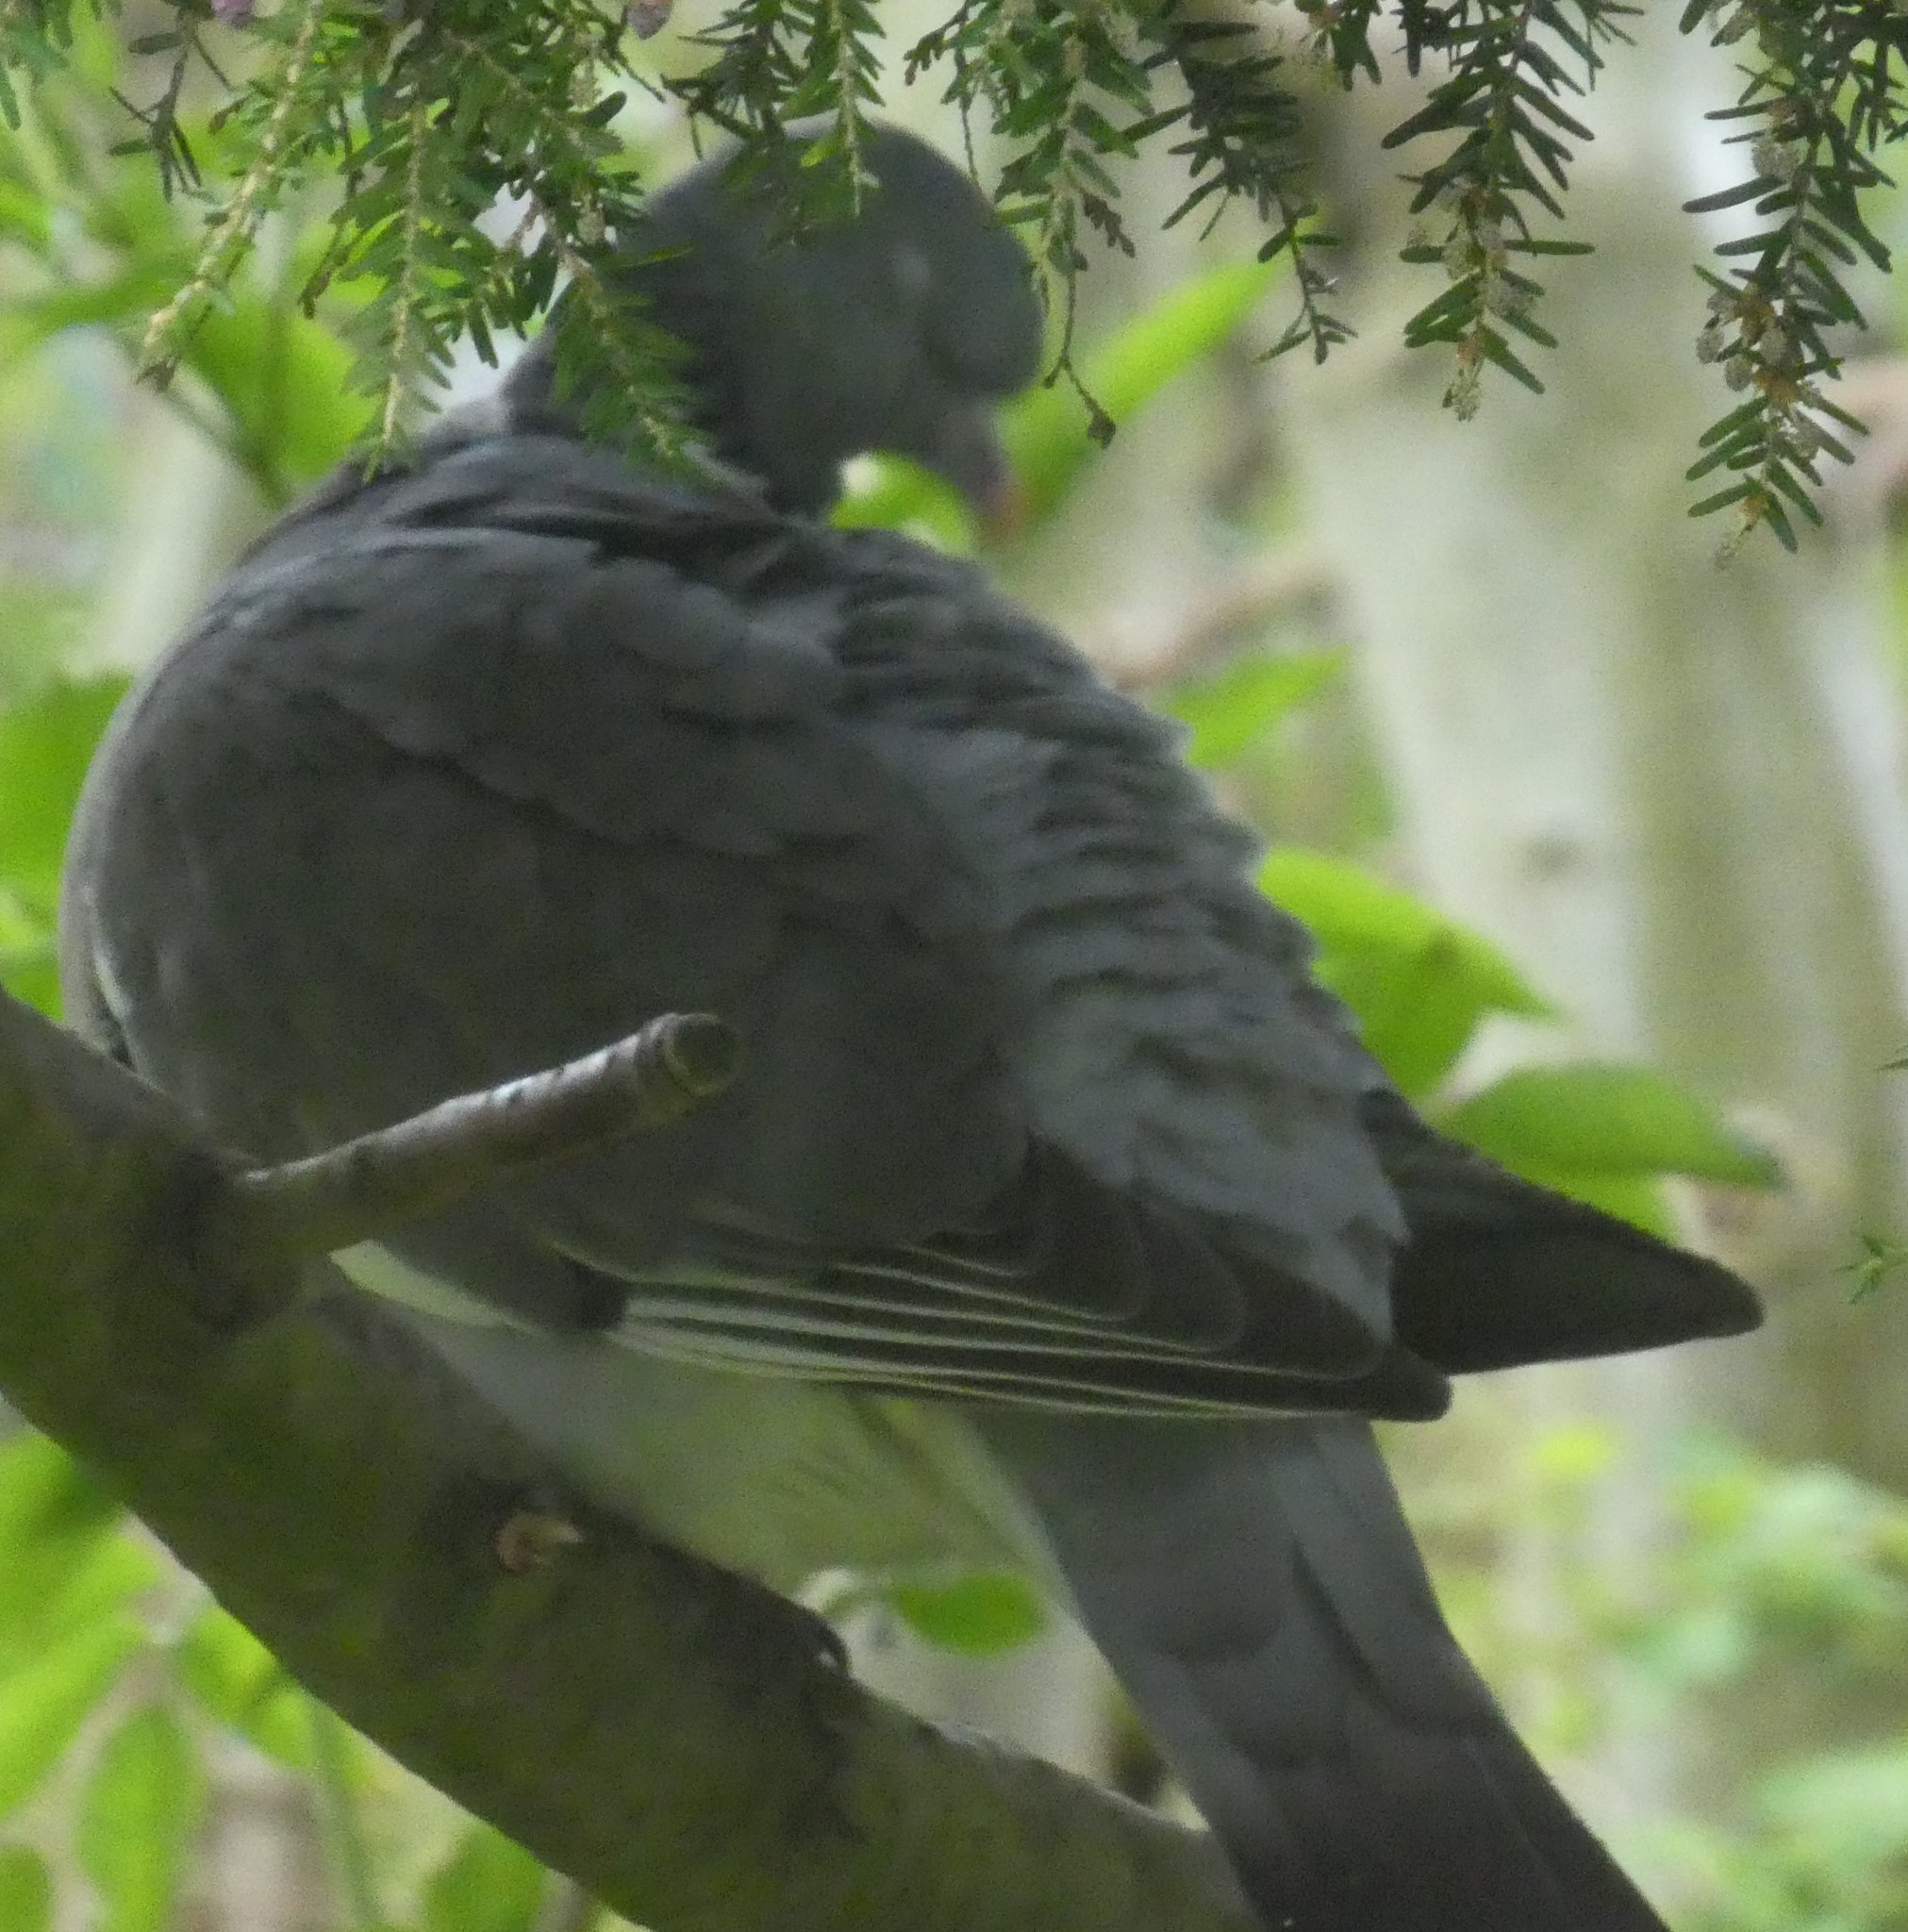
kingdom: Animalia
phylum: Chordata
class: Aves
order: Columbiformes
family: Columbidae
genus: Columba
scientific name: Columba palumbus
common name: Common wood pigeon
